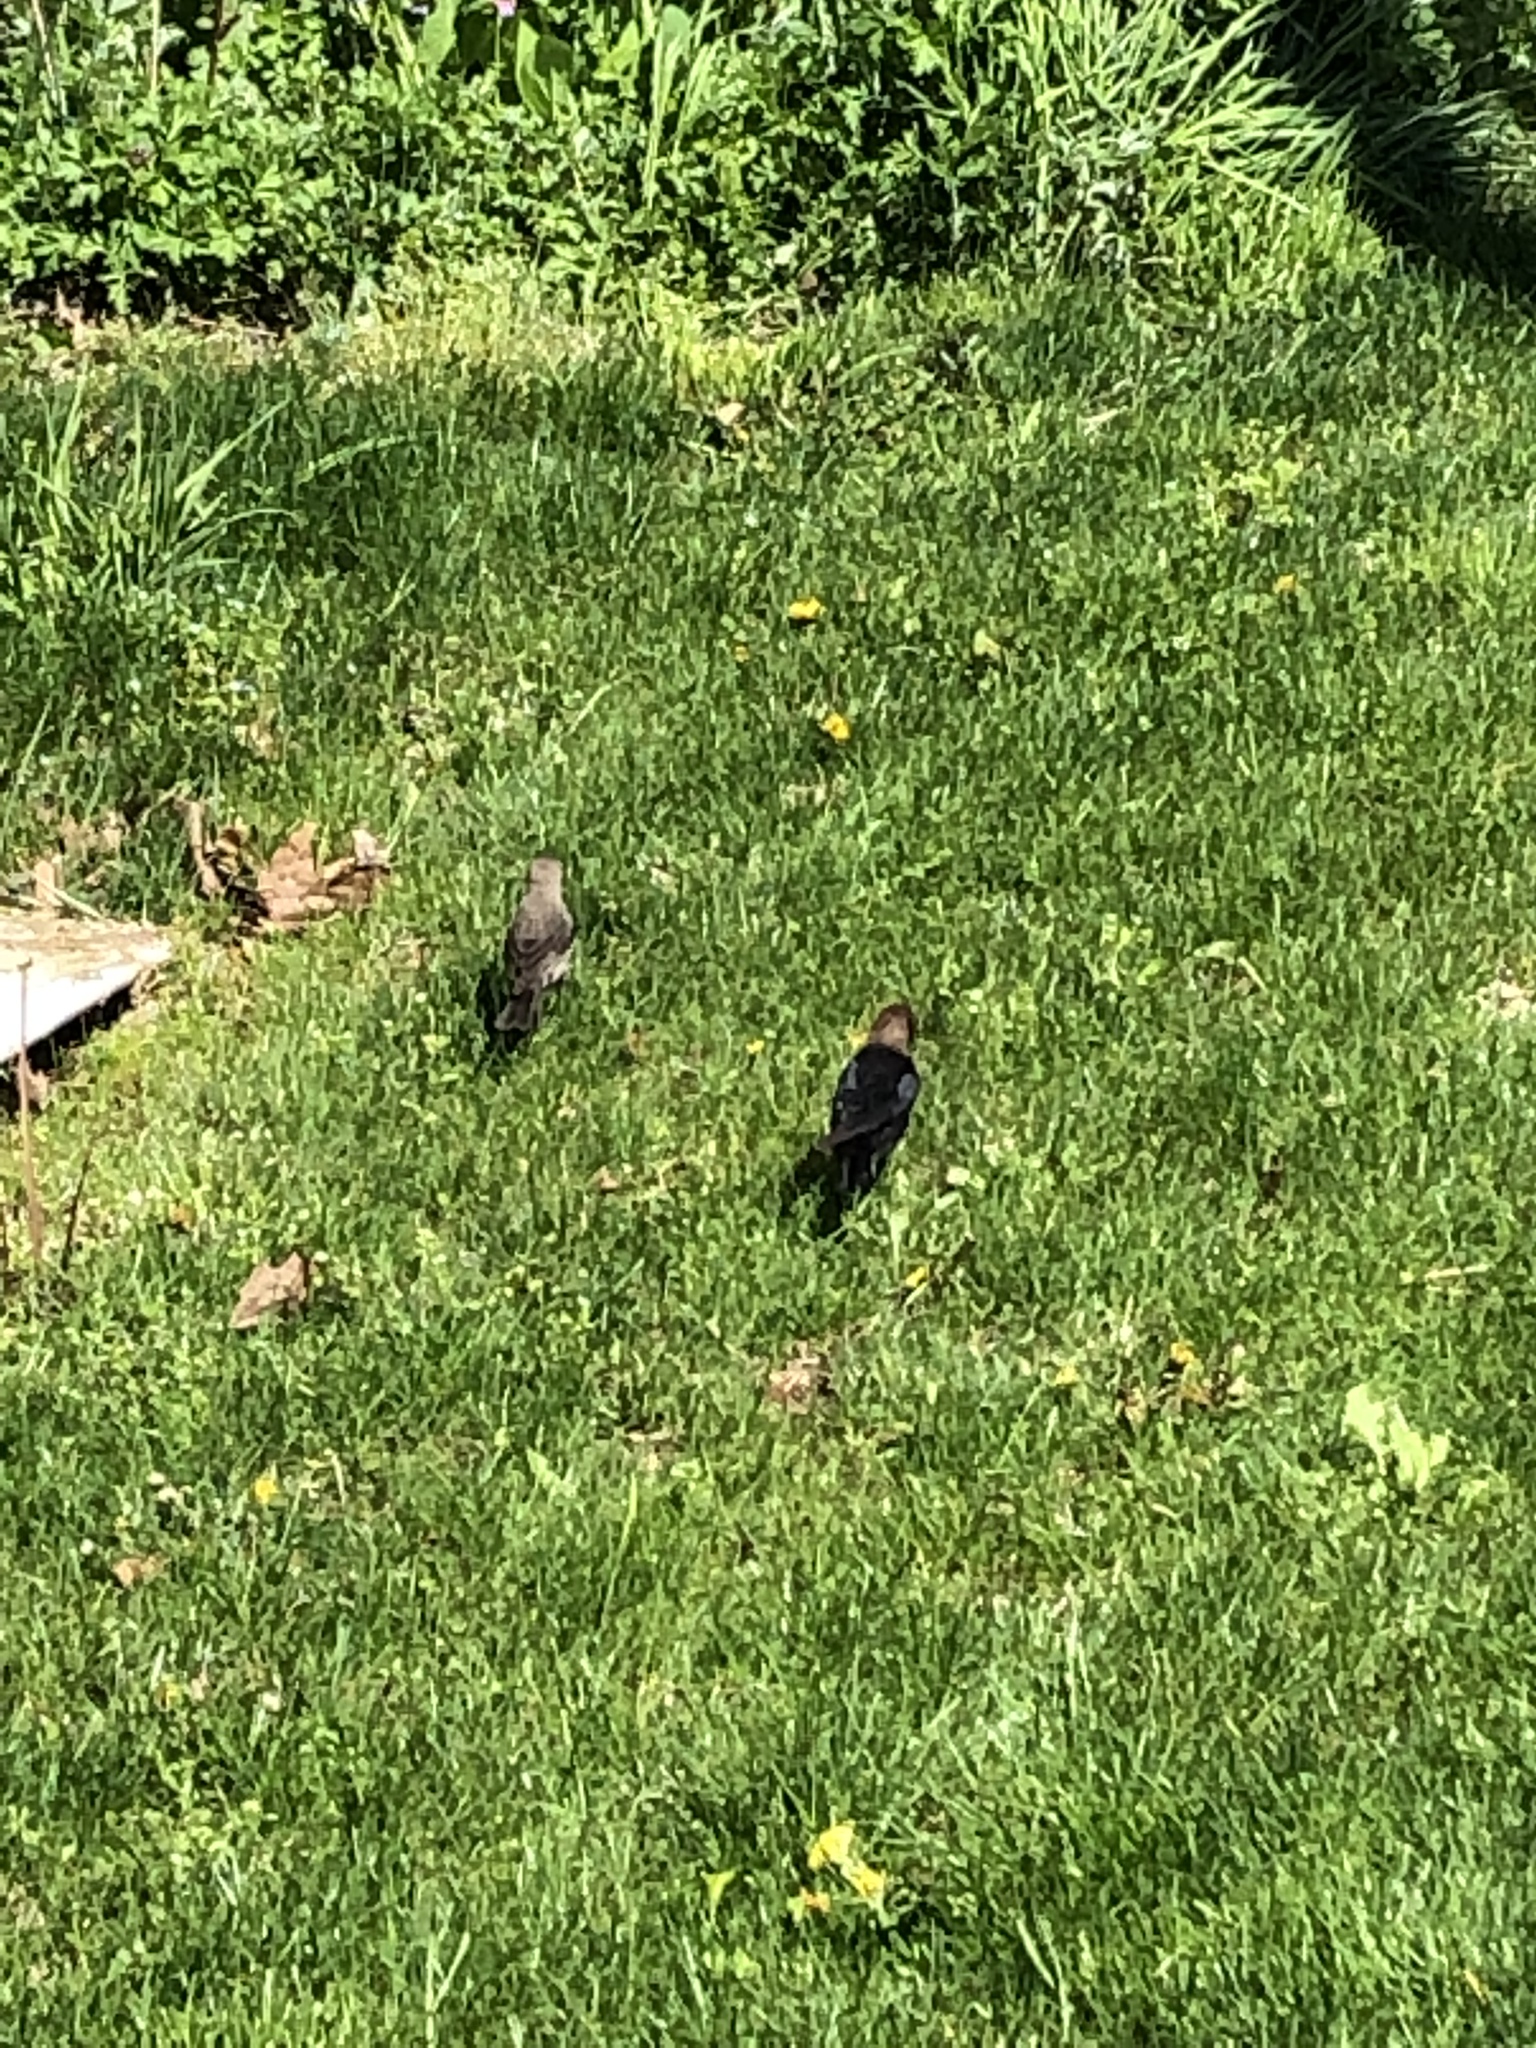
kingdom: Animalia
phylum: Chordata
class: Aves
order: Passeriformes
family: Icteridae
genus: Molothrus
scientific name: Molothrus ater
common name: Brown-headed cowbird
